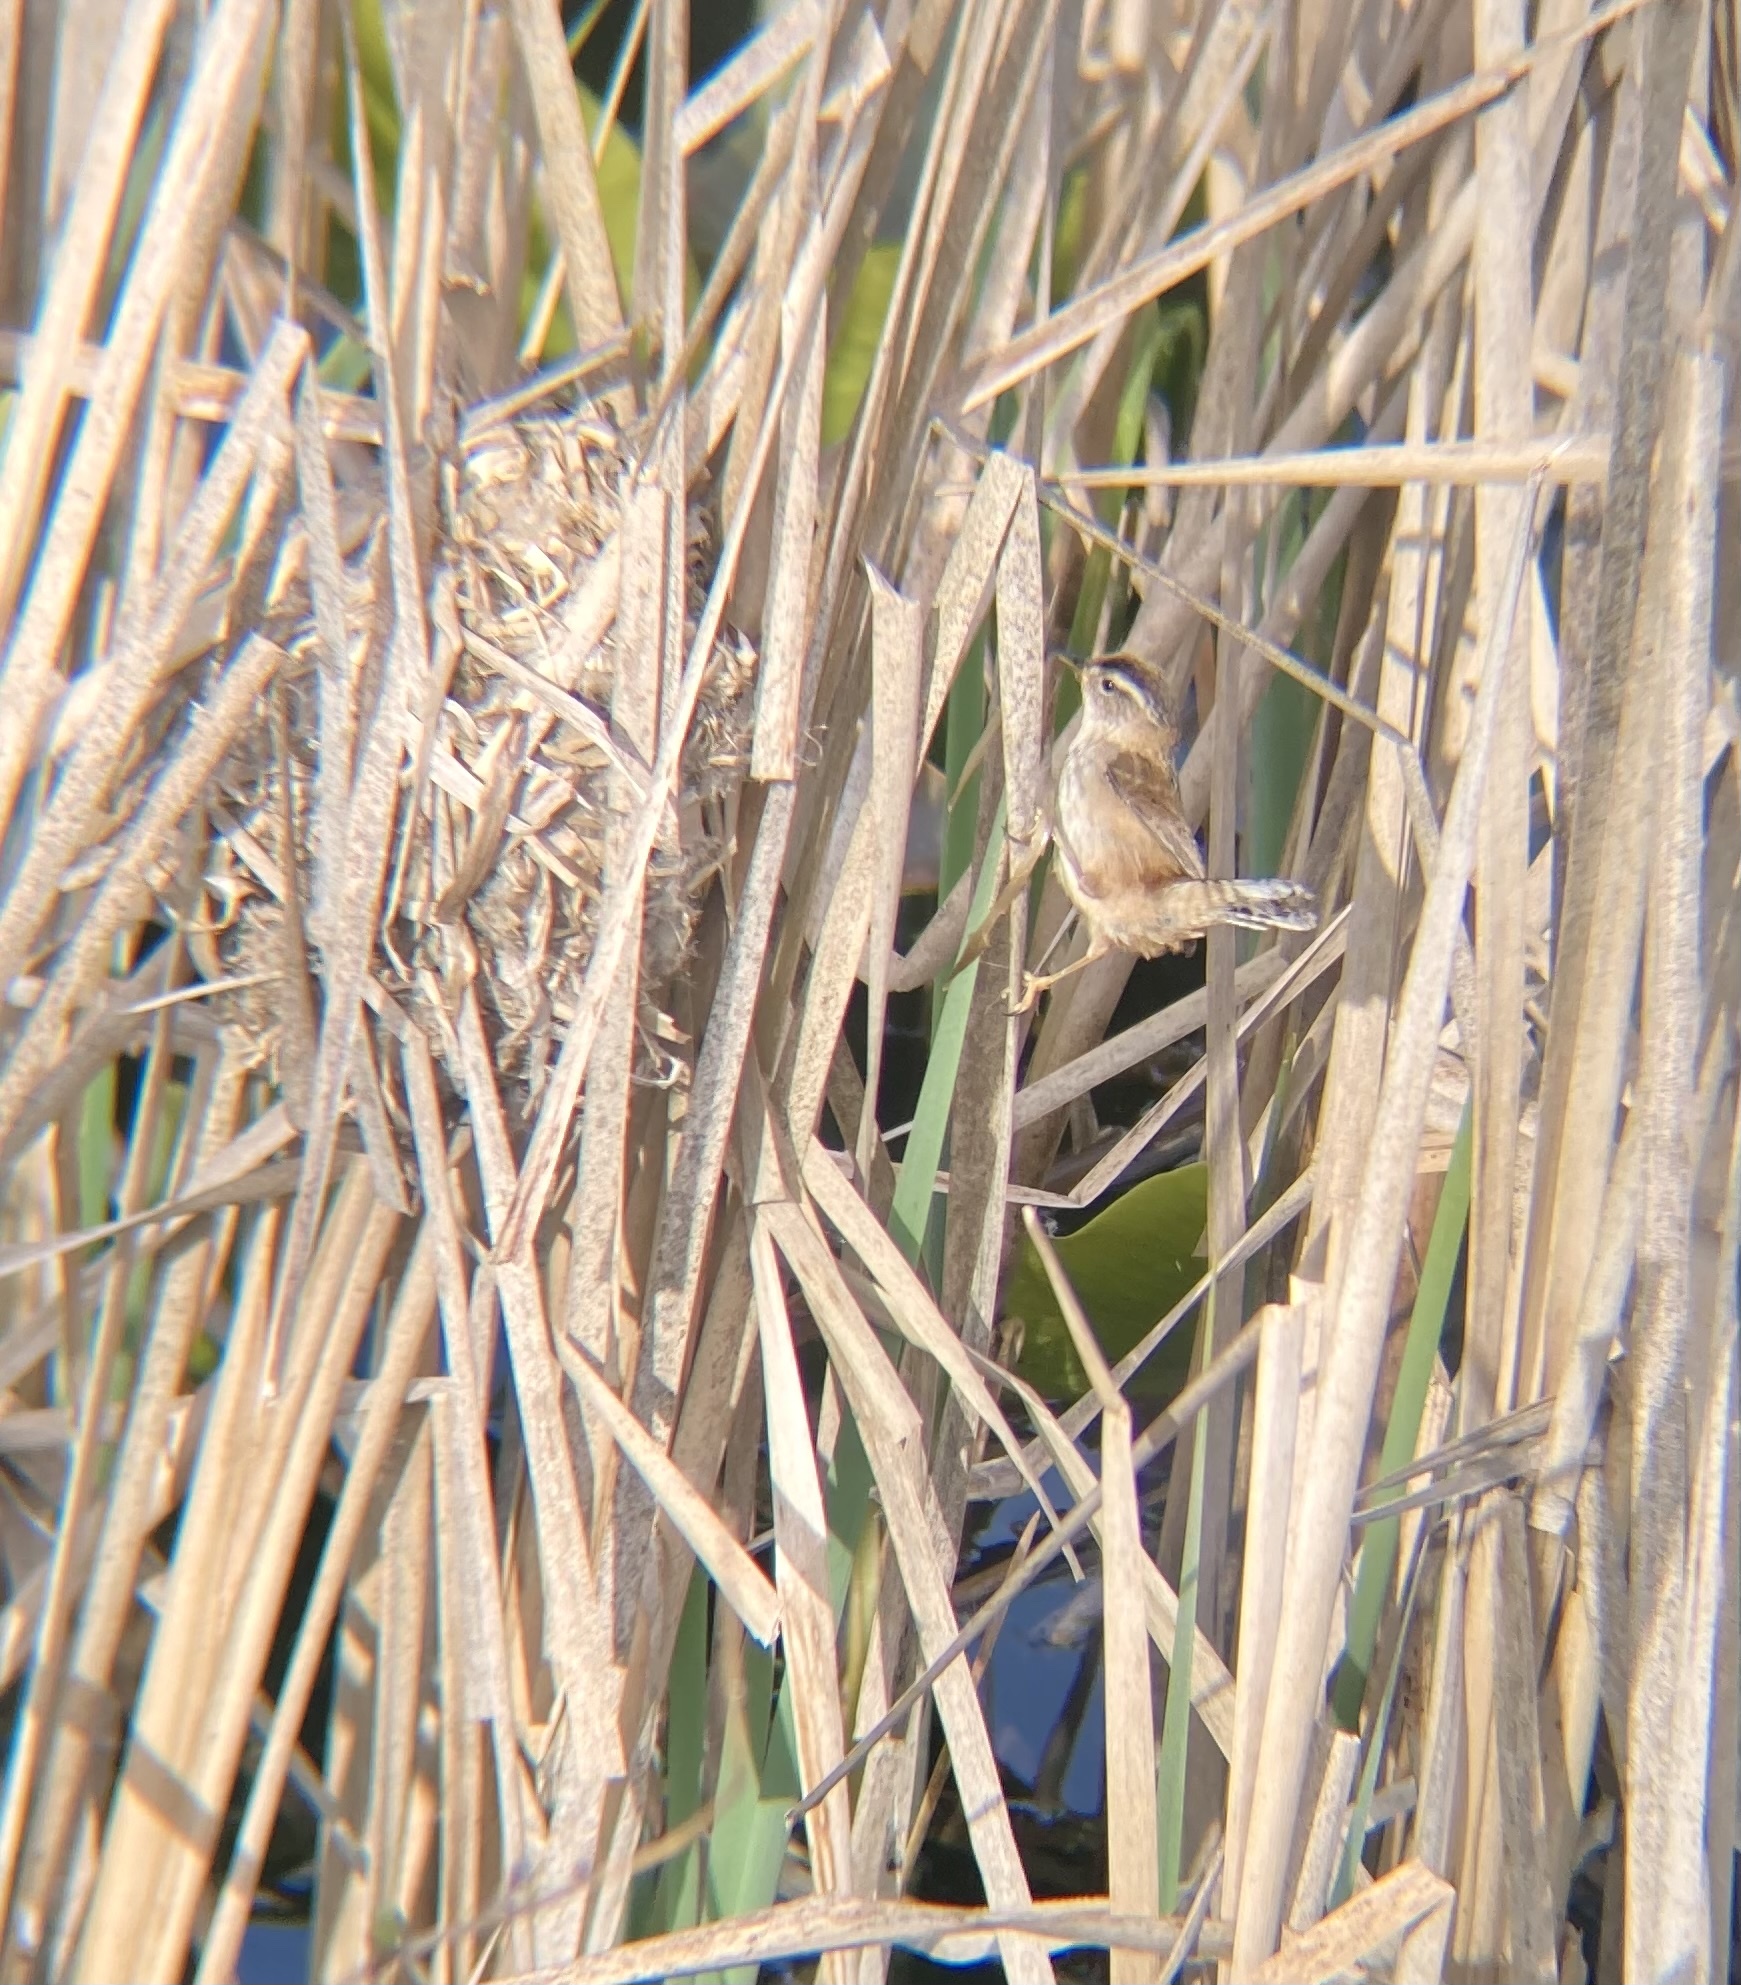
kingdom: Animalia
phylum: Chordata
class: Aves
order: Passeriformes
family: Troglodytidae
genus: Cistothorus
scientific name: Cistothorus palustris
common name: Marsh wren
